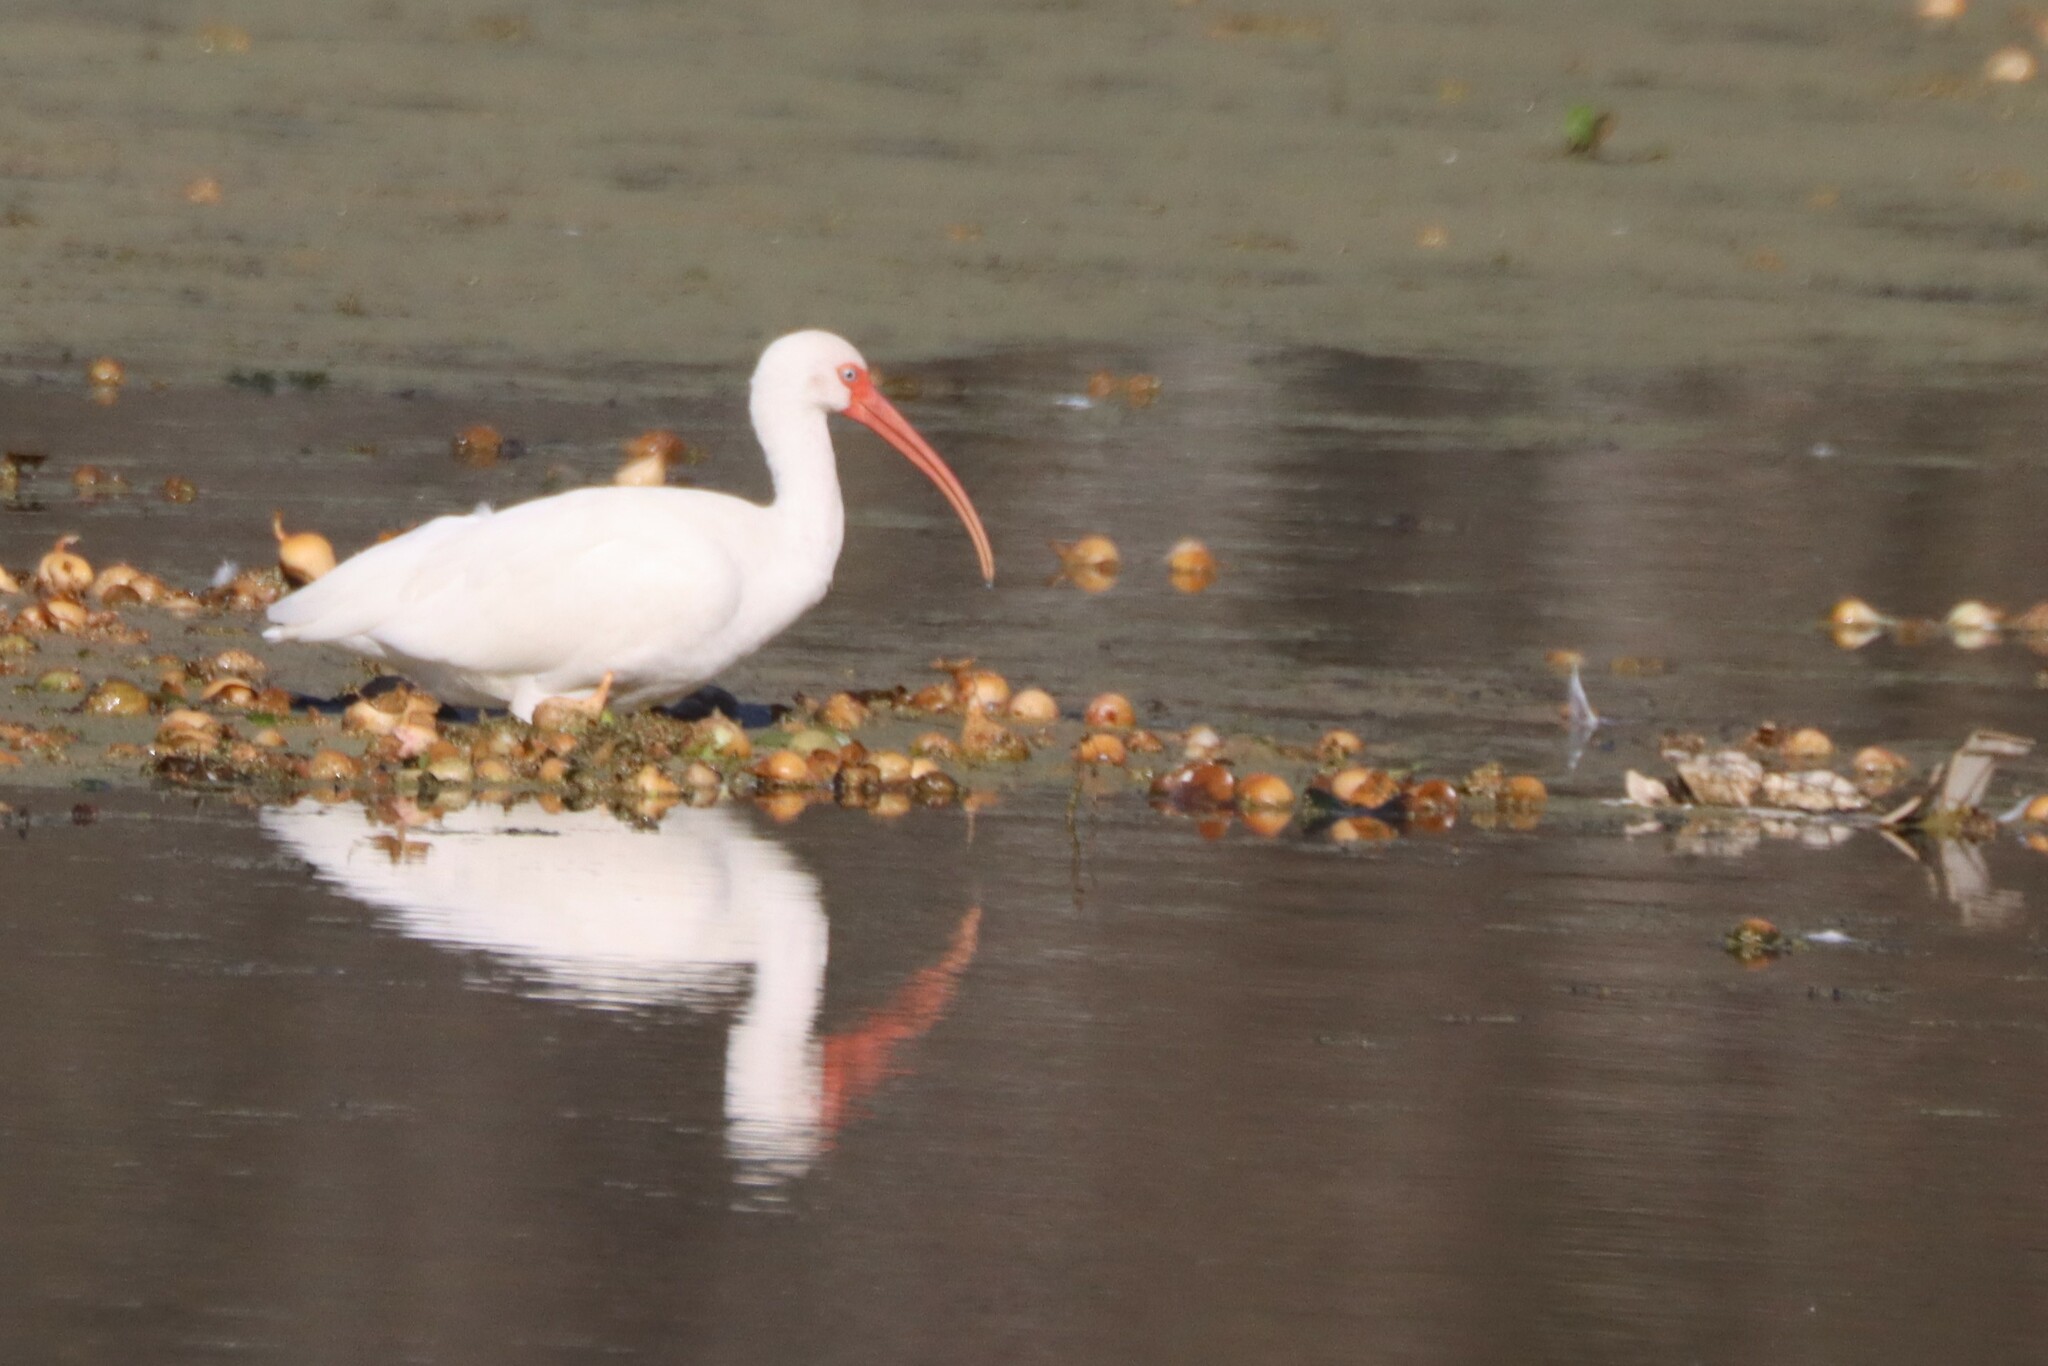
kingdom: Animalia
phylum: Chordata
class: Aves
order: Pelecaniformes
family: Threskiornithidae
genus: Eudocimus
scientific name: Eudocimus albus
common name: White ibis
